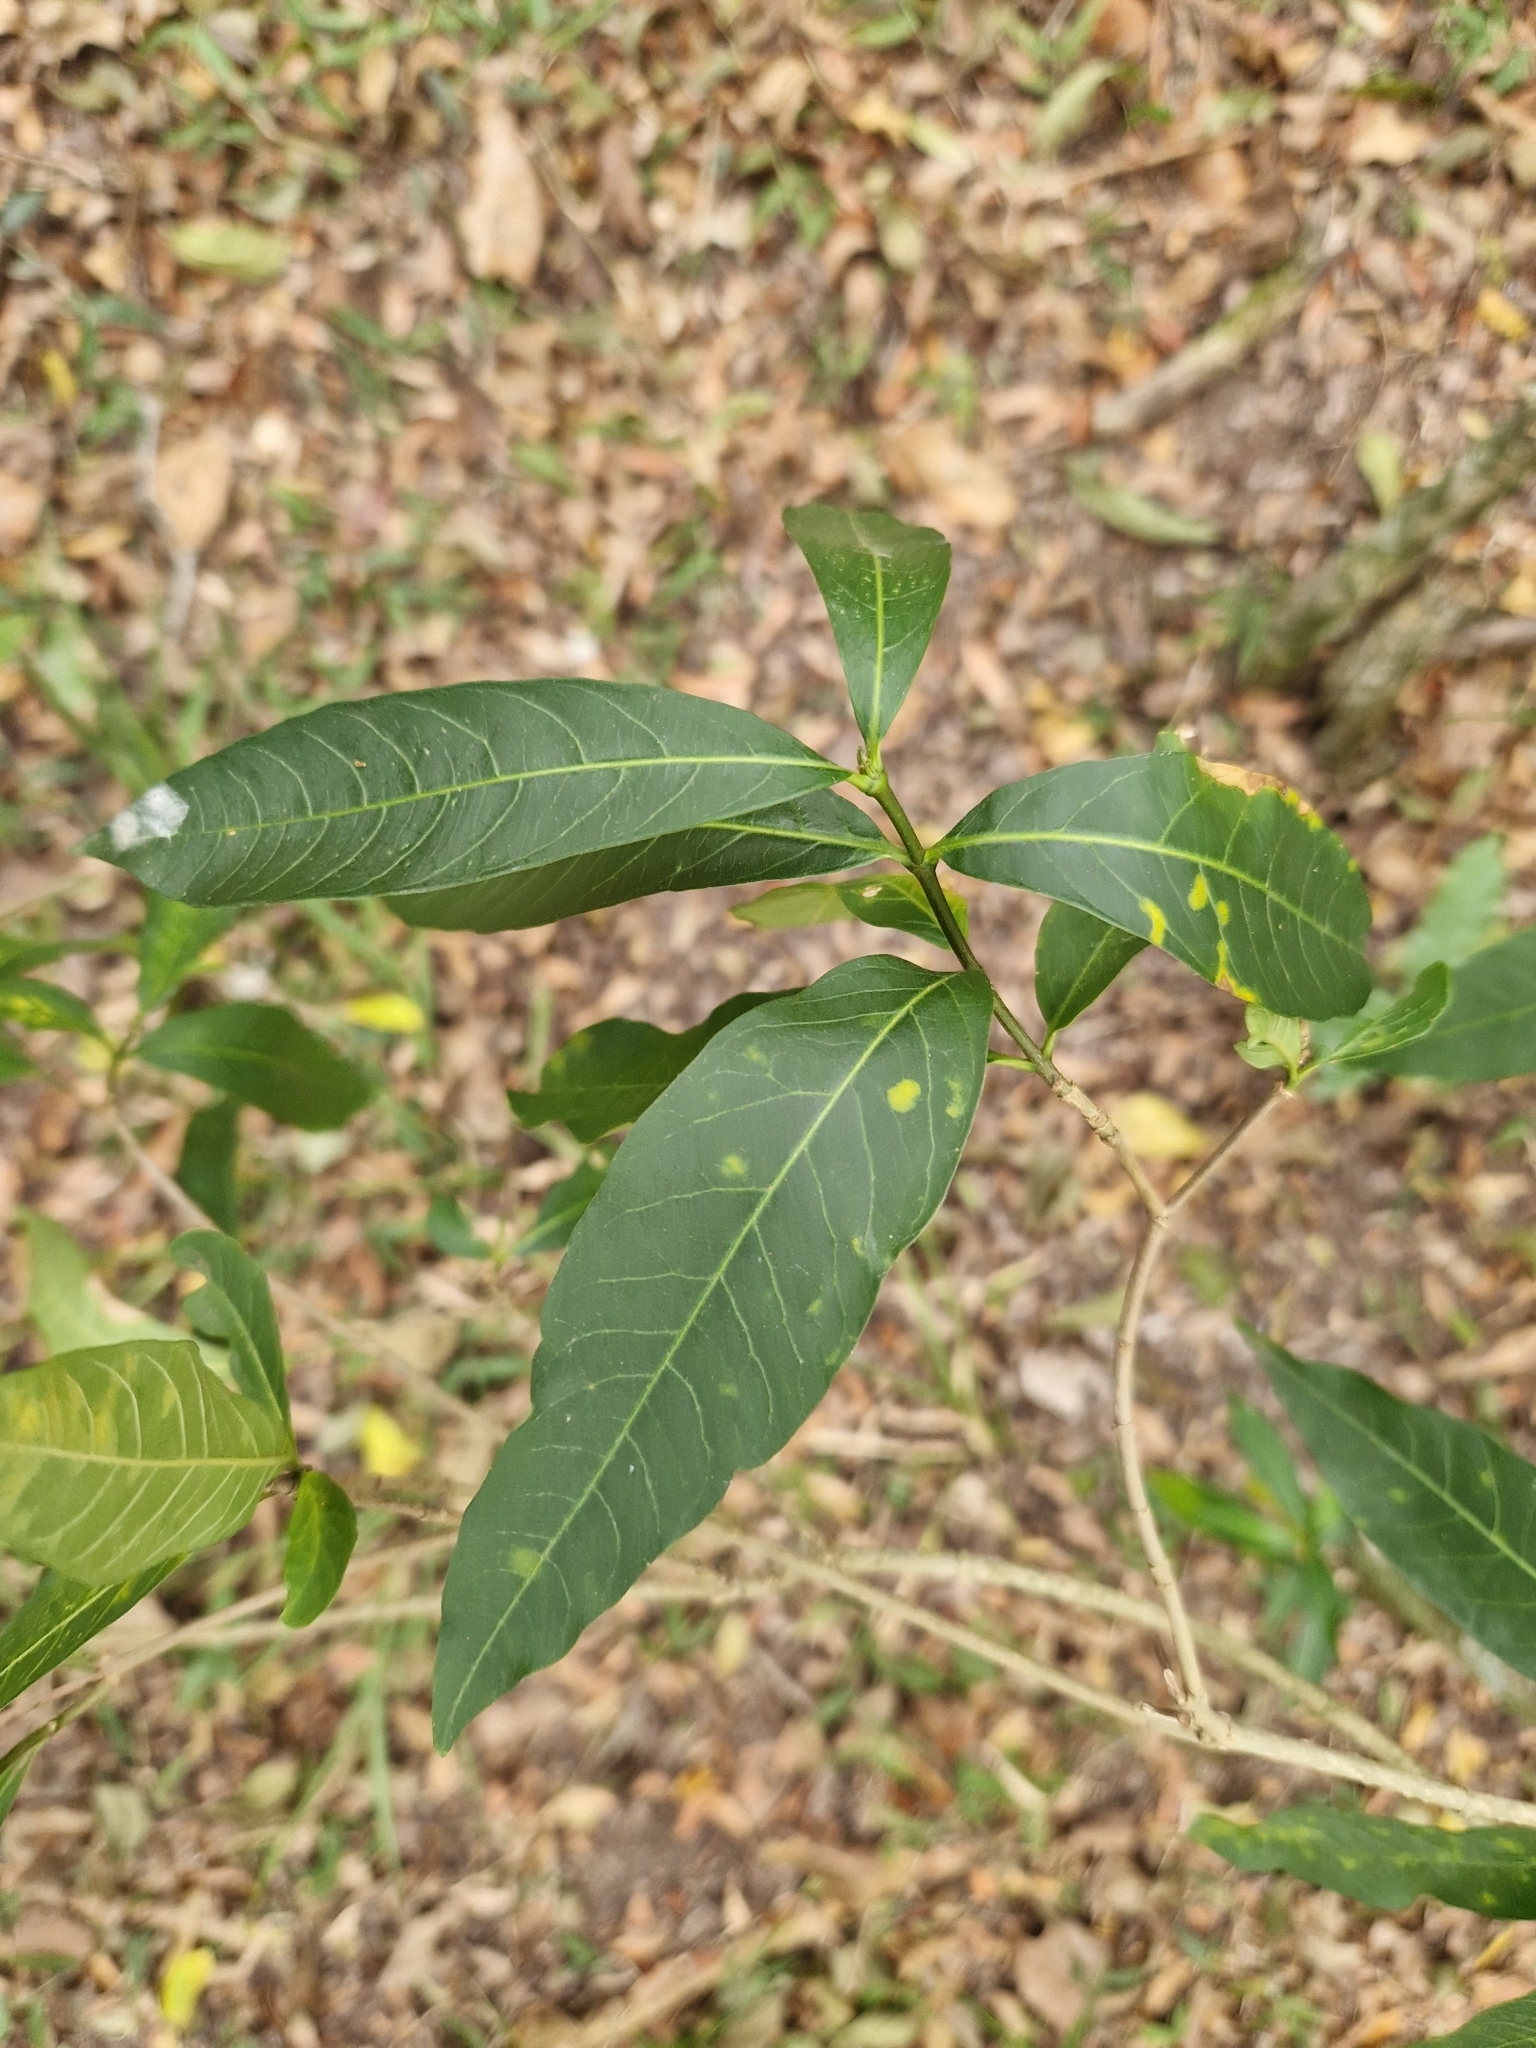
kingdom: Plantae
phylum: Tracheophyta
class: Magnoliopsida
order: Gentianales
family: Apocynaceae
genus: Tabernaemontana
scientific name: Tabernaemontana catharinensis
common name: Pinwheel-flower
